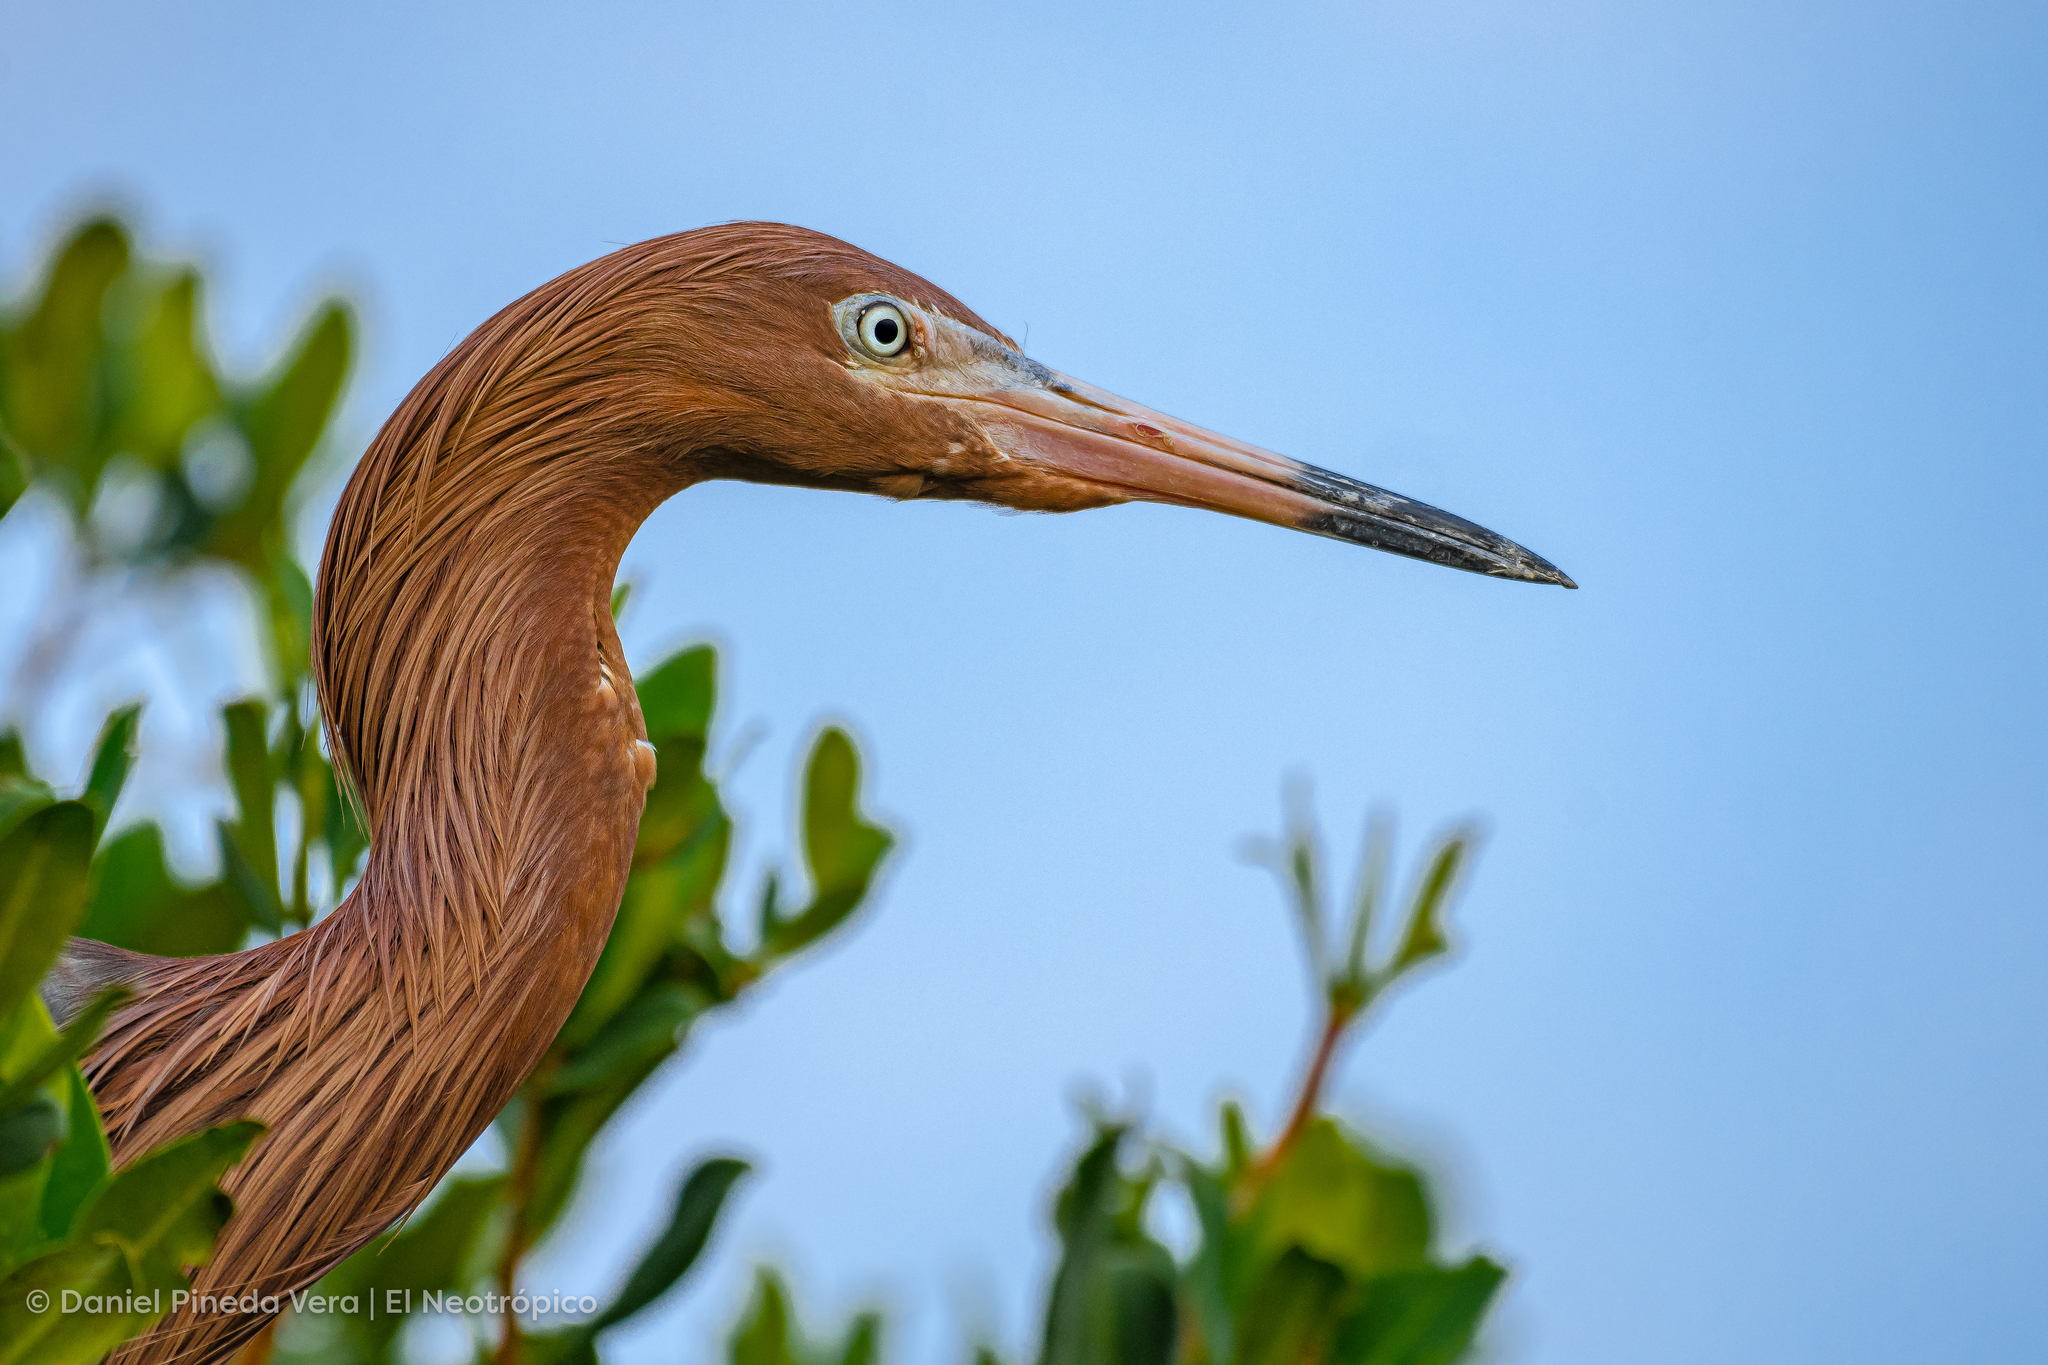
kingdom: Animalia
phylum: Chordata
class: Aves
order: Pelecaniformes
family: Ardeidae
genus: Egretta
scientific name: Egretta rufescens
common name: Reddish egret
